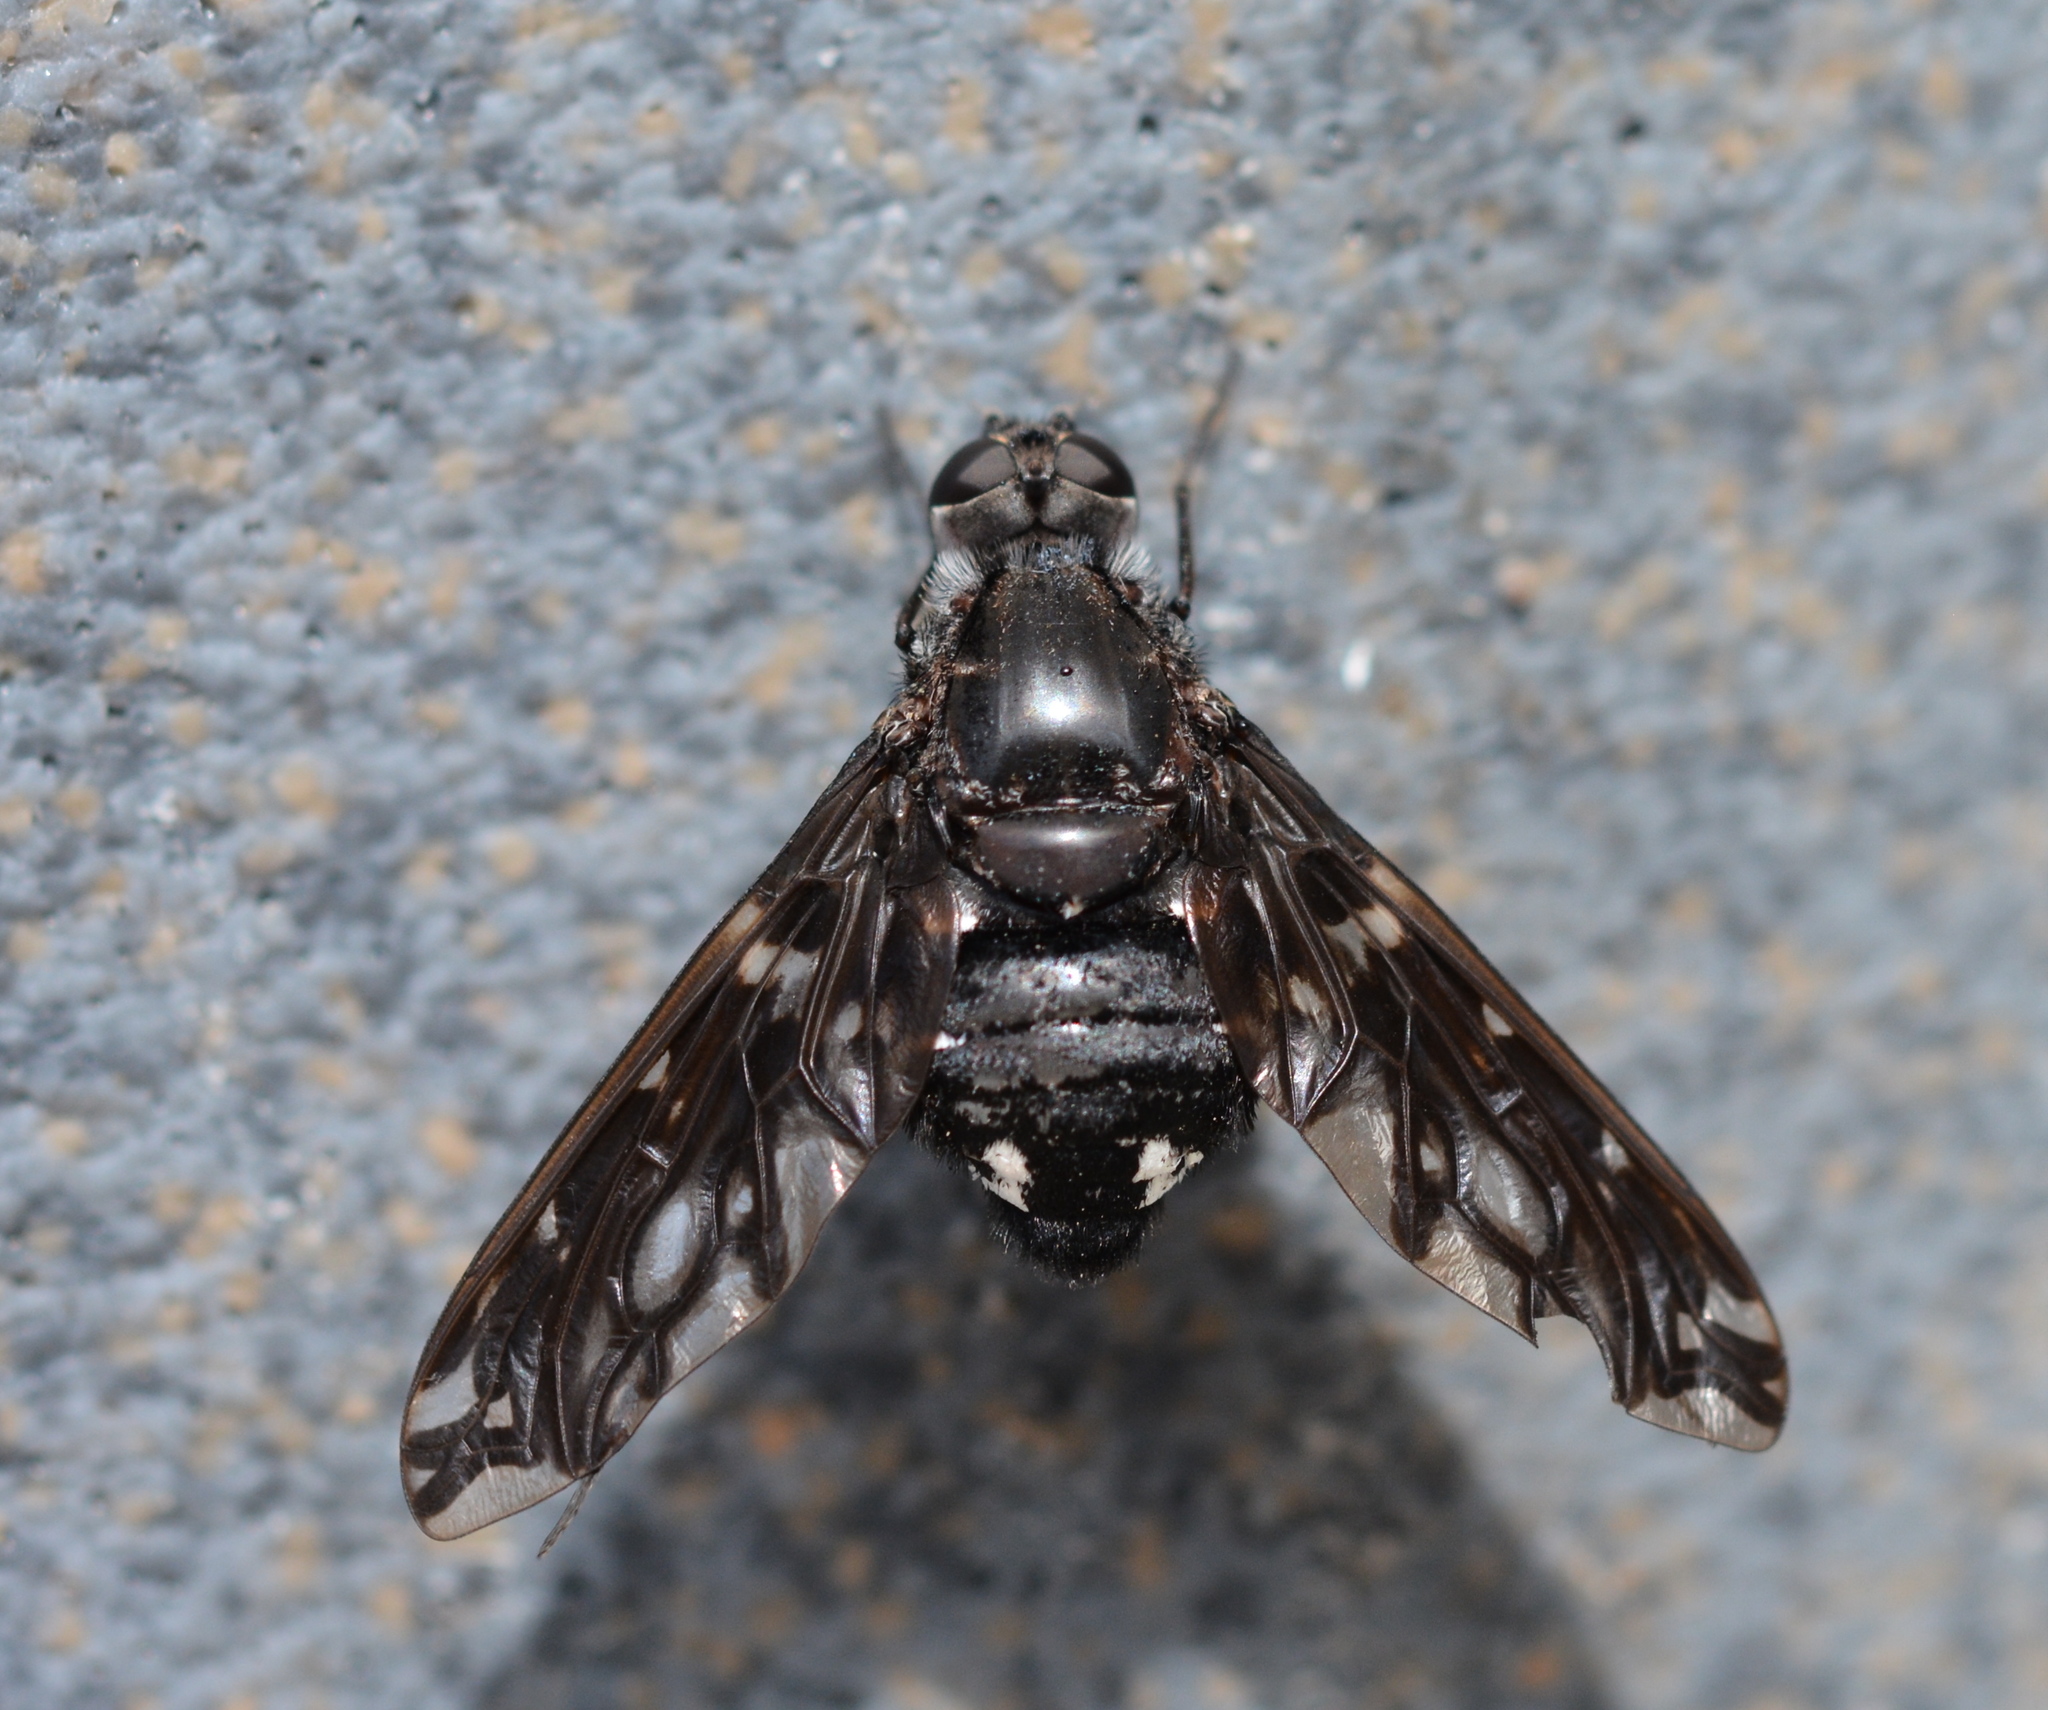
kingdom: Animalia
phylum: Arthropoda
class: Insecta
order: Diptera
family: Bombyliidae
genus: Xenox
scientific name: Xenox tigrinus
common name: Tiger bee fly
